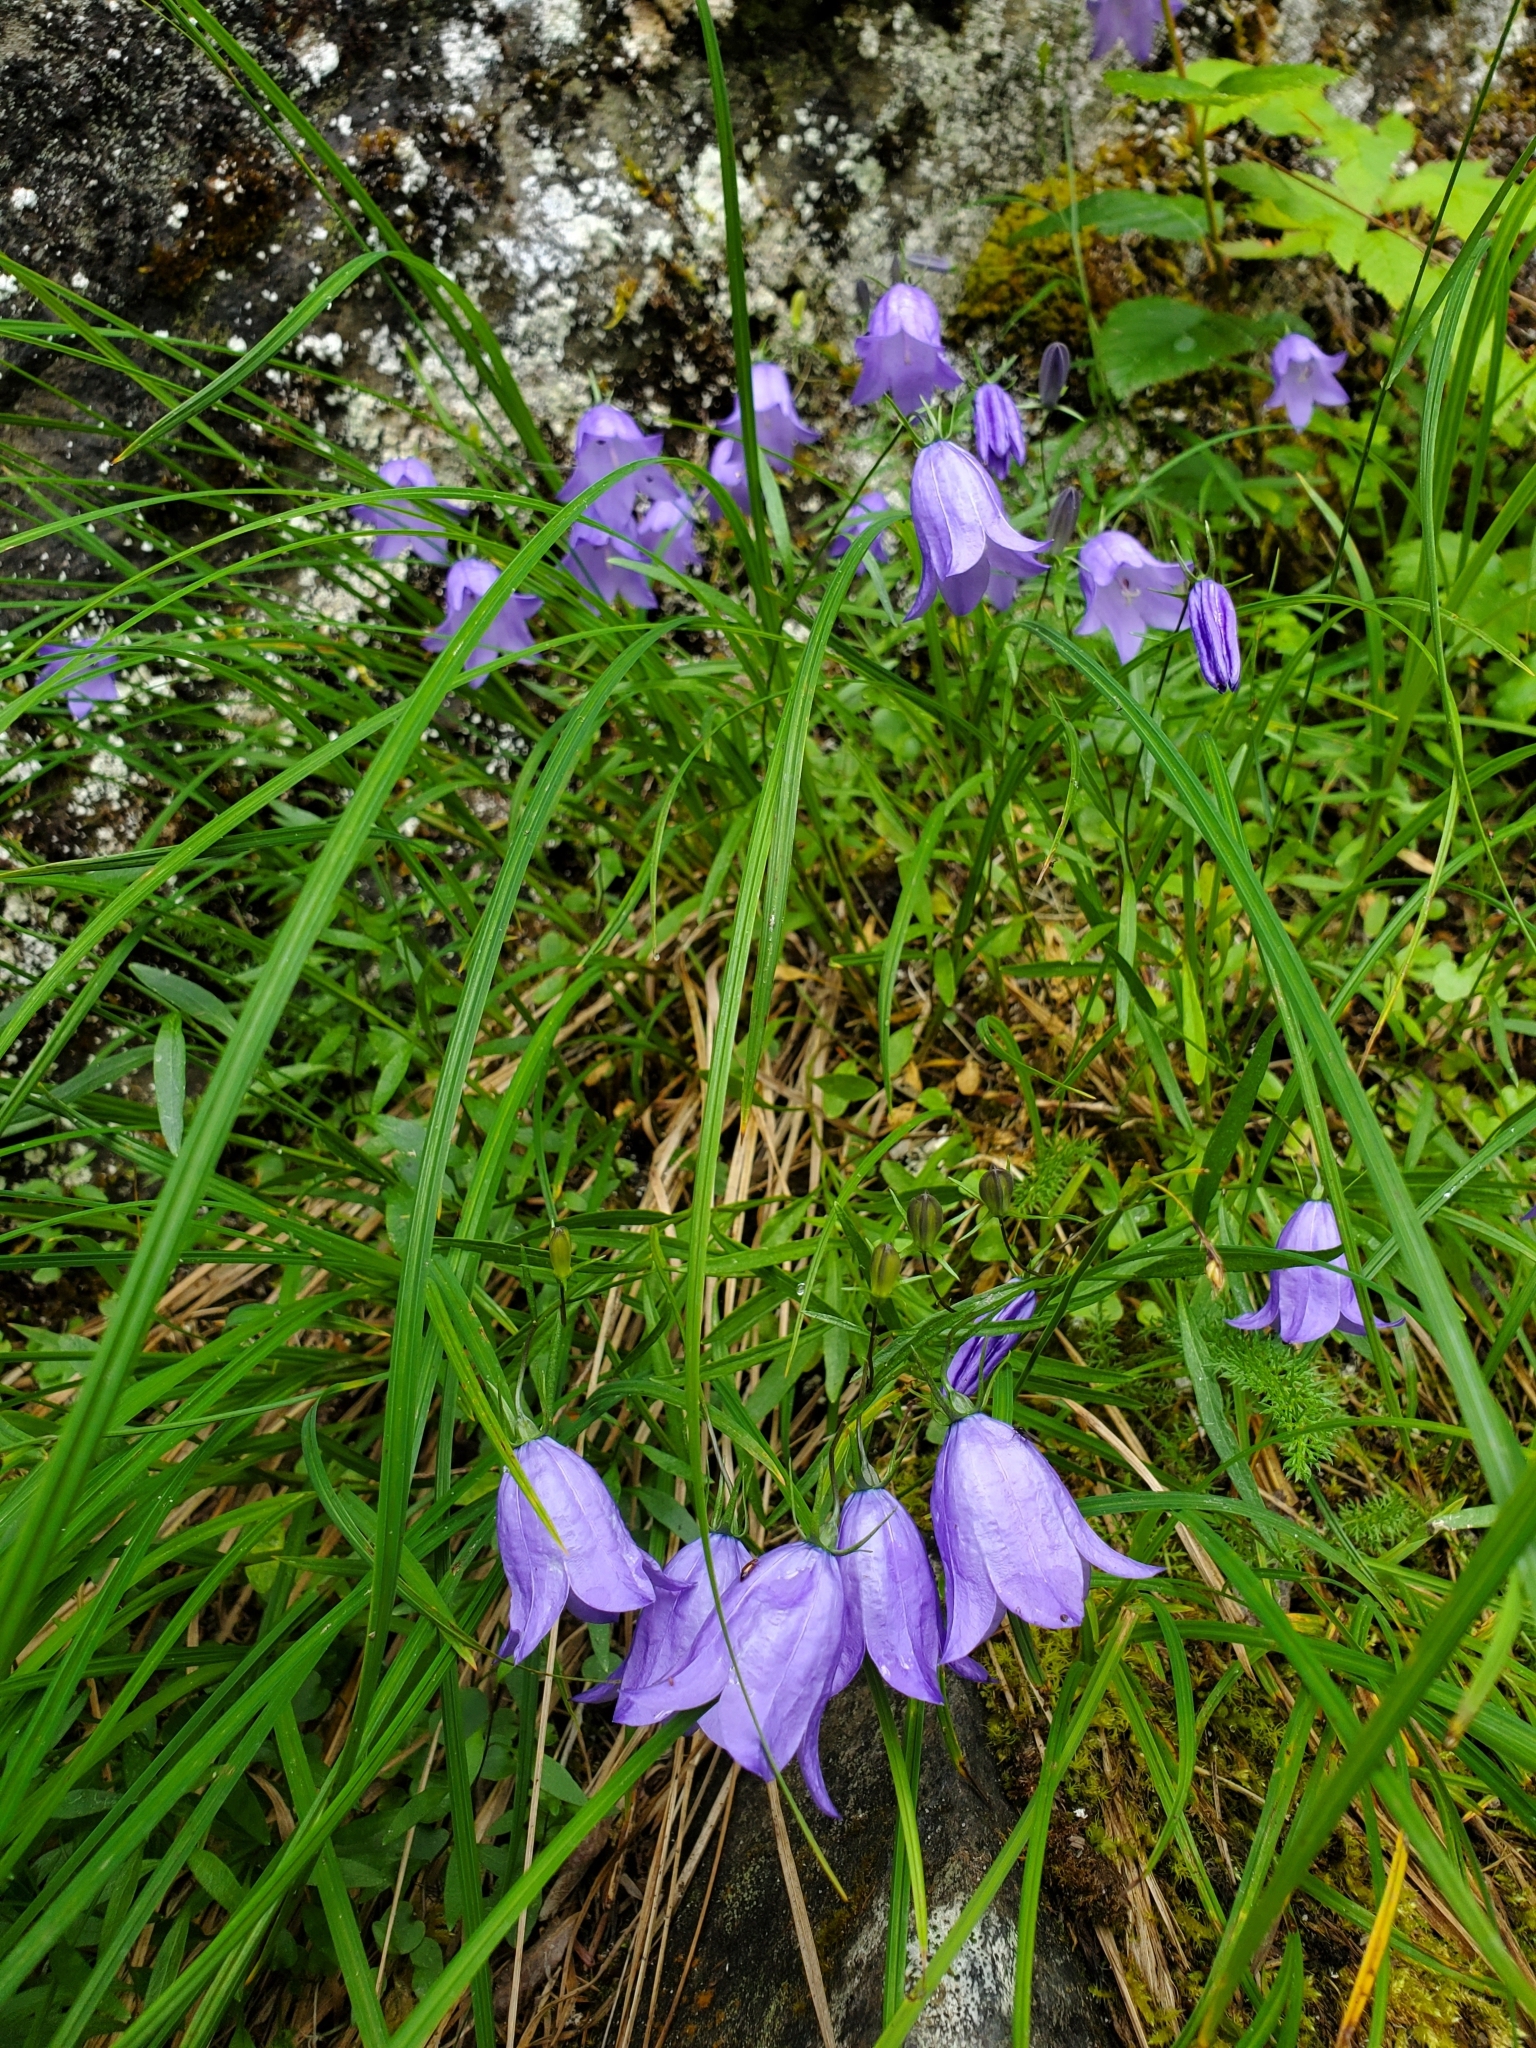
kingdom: Plantae
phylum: Tracheophyta
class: Magnoliopsida
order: Asterales
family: Campanulaceae
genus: Campanula
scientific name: Campanula alaskana
